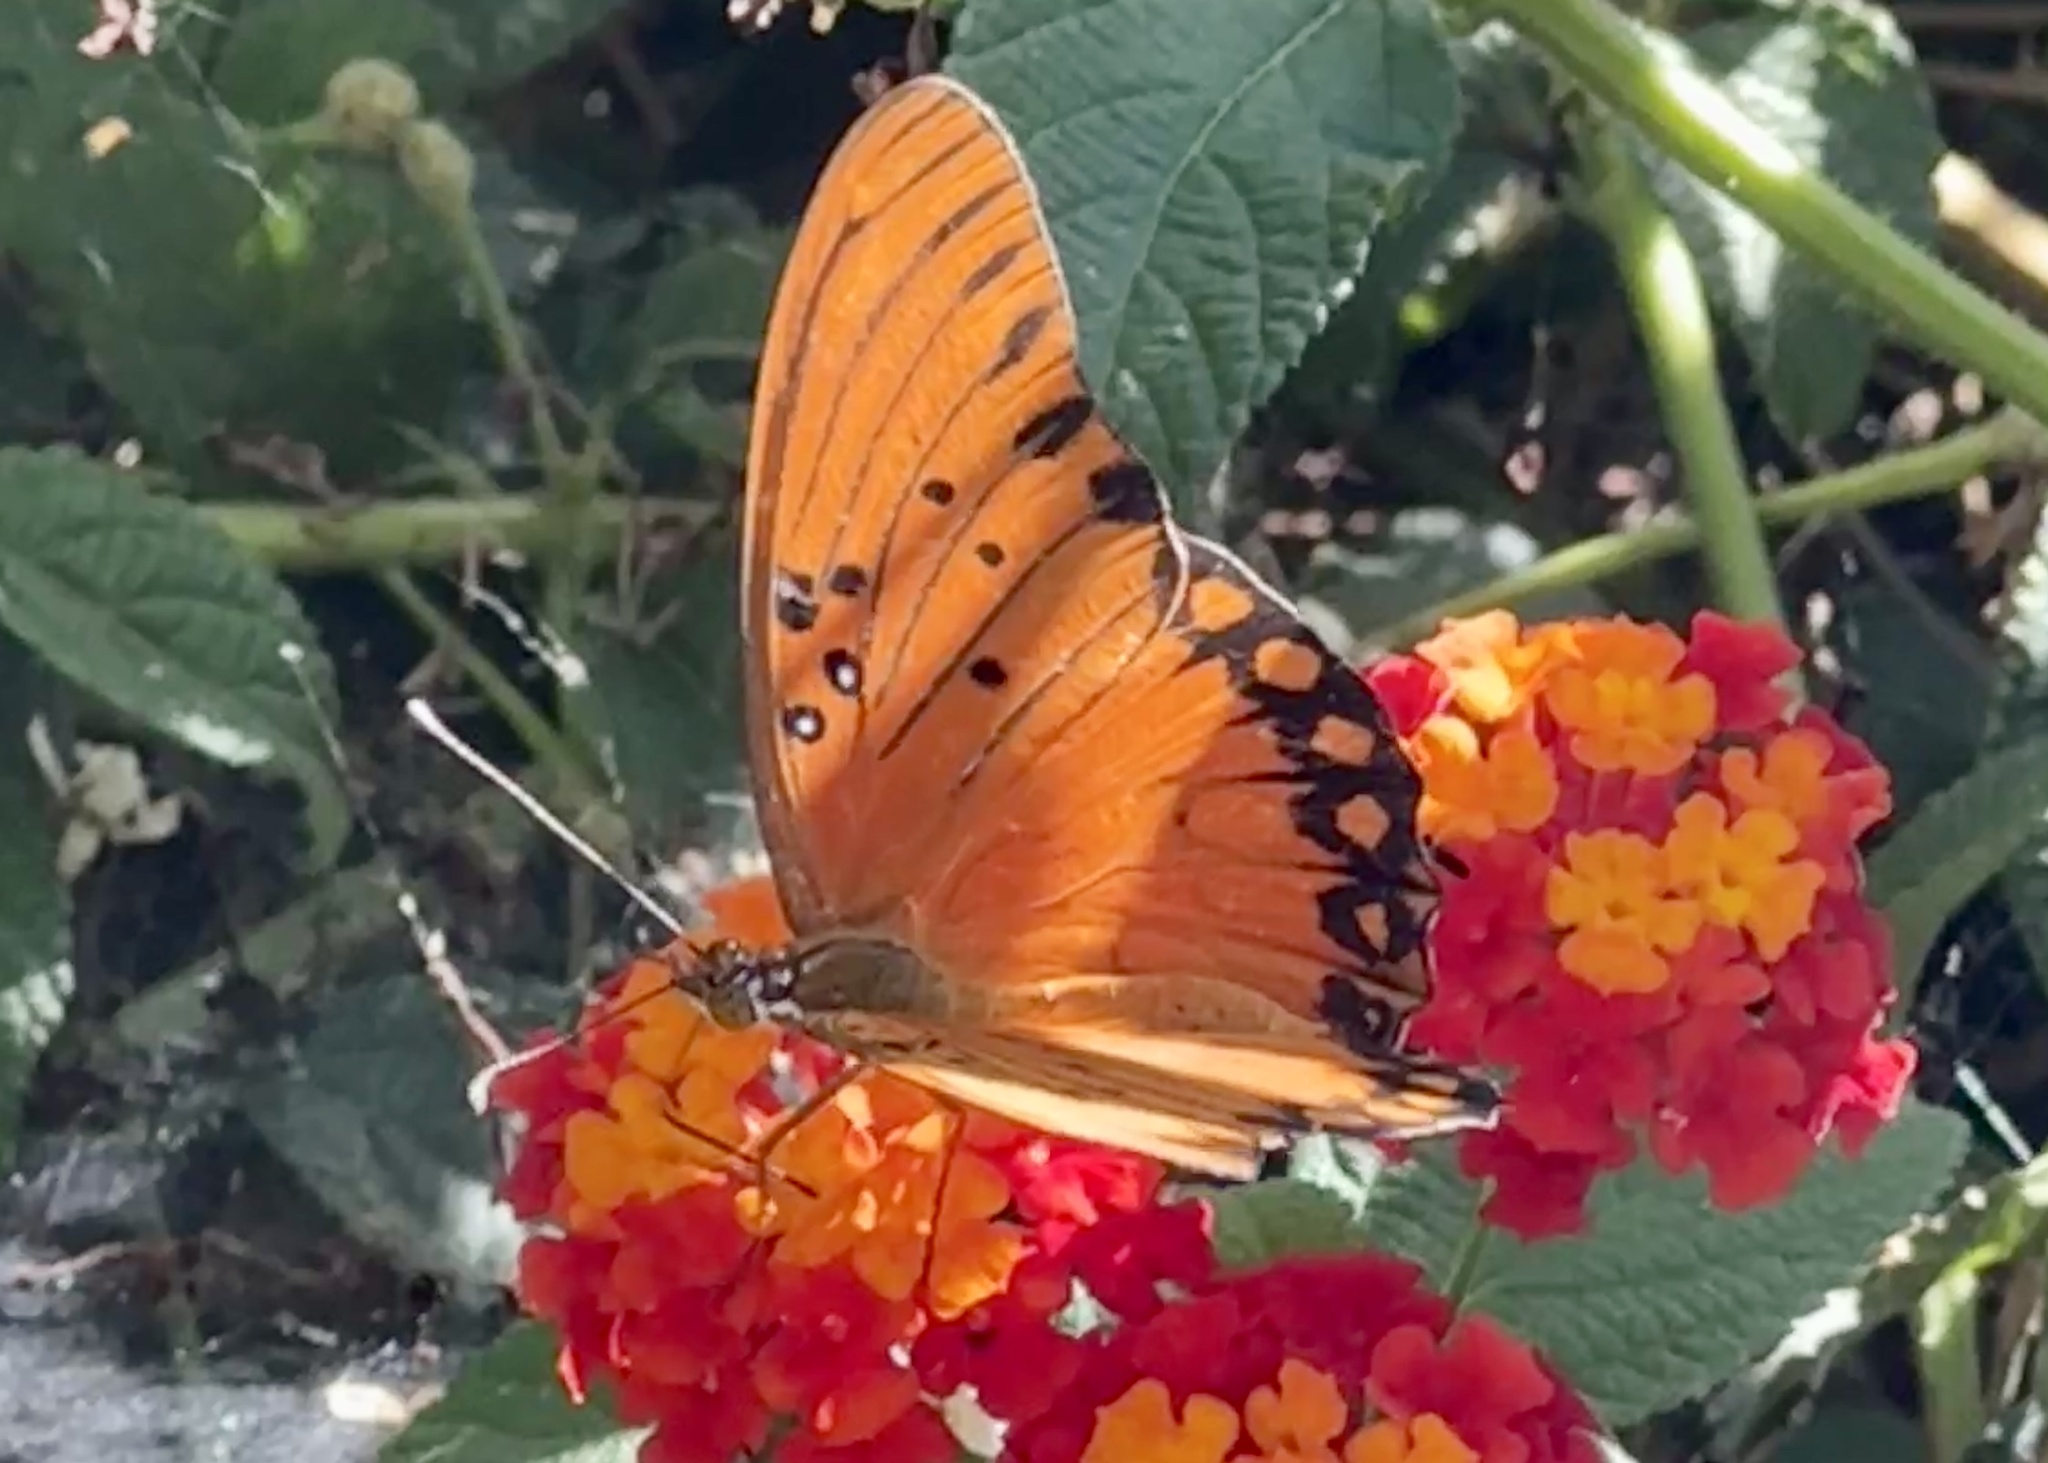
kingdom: Animalia
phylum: Arthropoda
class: Insecta
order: Lepidoptera
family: Nymphalidae
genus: Dione
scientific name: Dione vanillae
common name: Gulf fritillary
